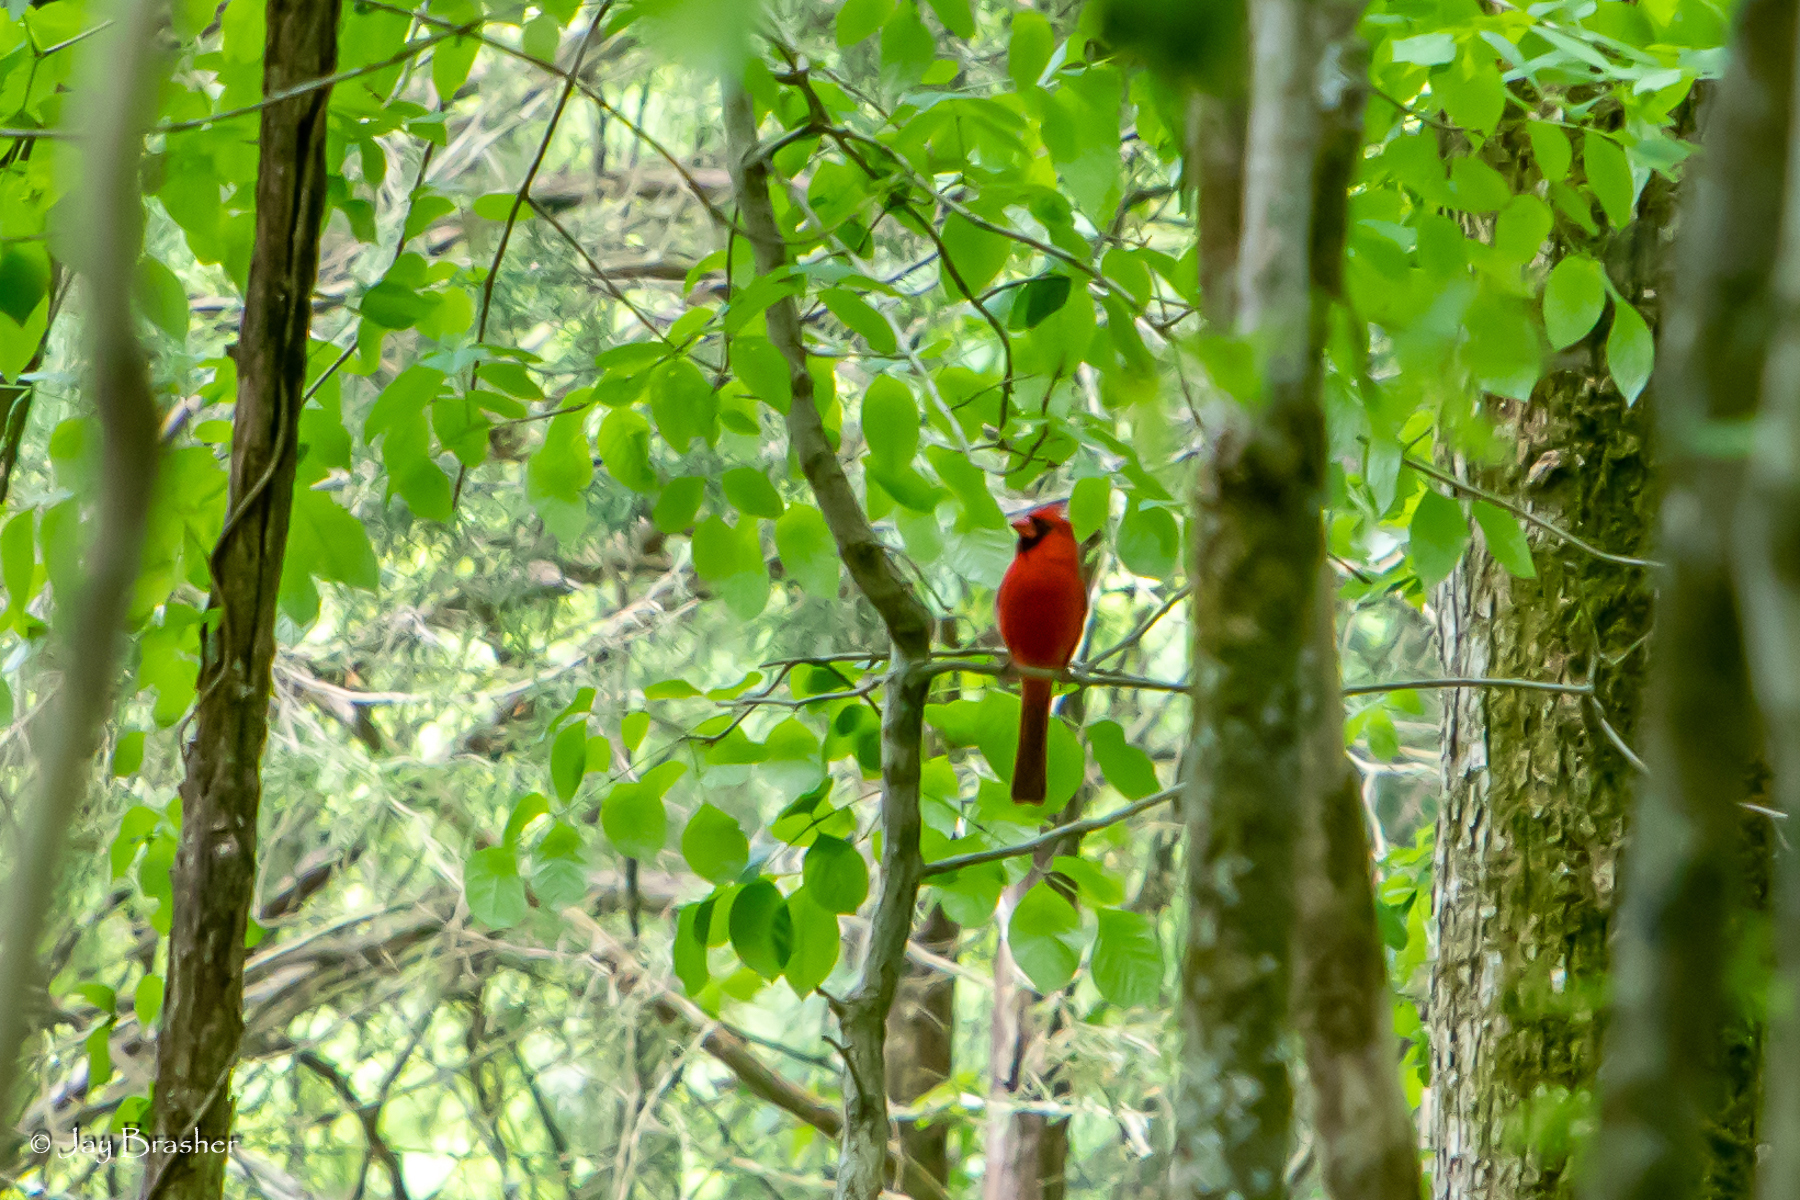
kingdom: Animalia
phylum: Chordata
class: Aves
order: Passeriformes
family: Cardinalidae
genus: Cardinalis
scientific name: Cardinalis cardinalis
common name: Northern cardinal
